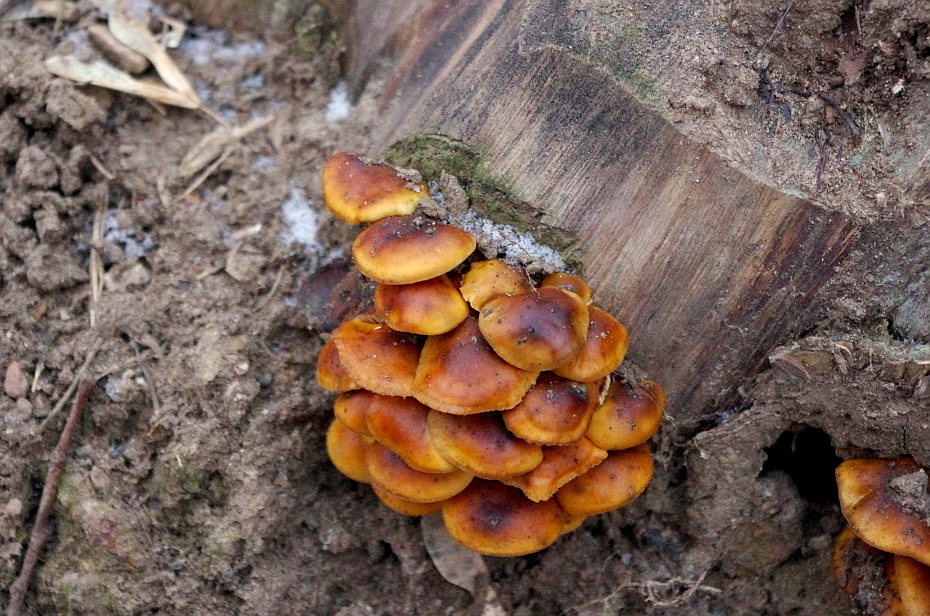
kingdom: Fungi
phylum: Basidiomycota
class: Agaricomycetes
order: Agaricales
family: Physalacriaceae
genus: Flammulina
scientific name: Flammulina
